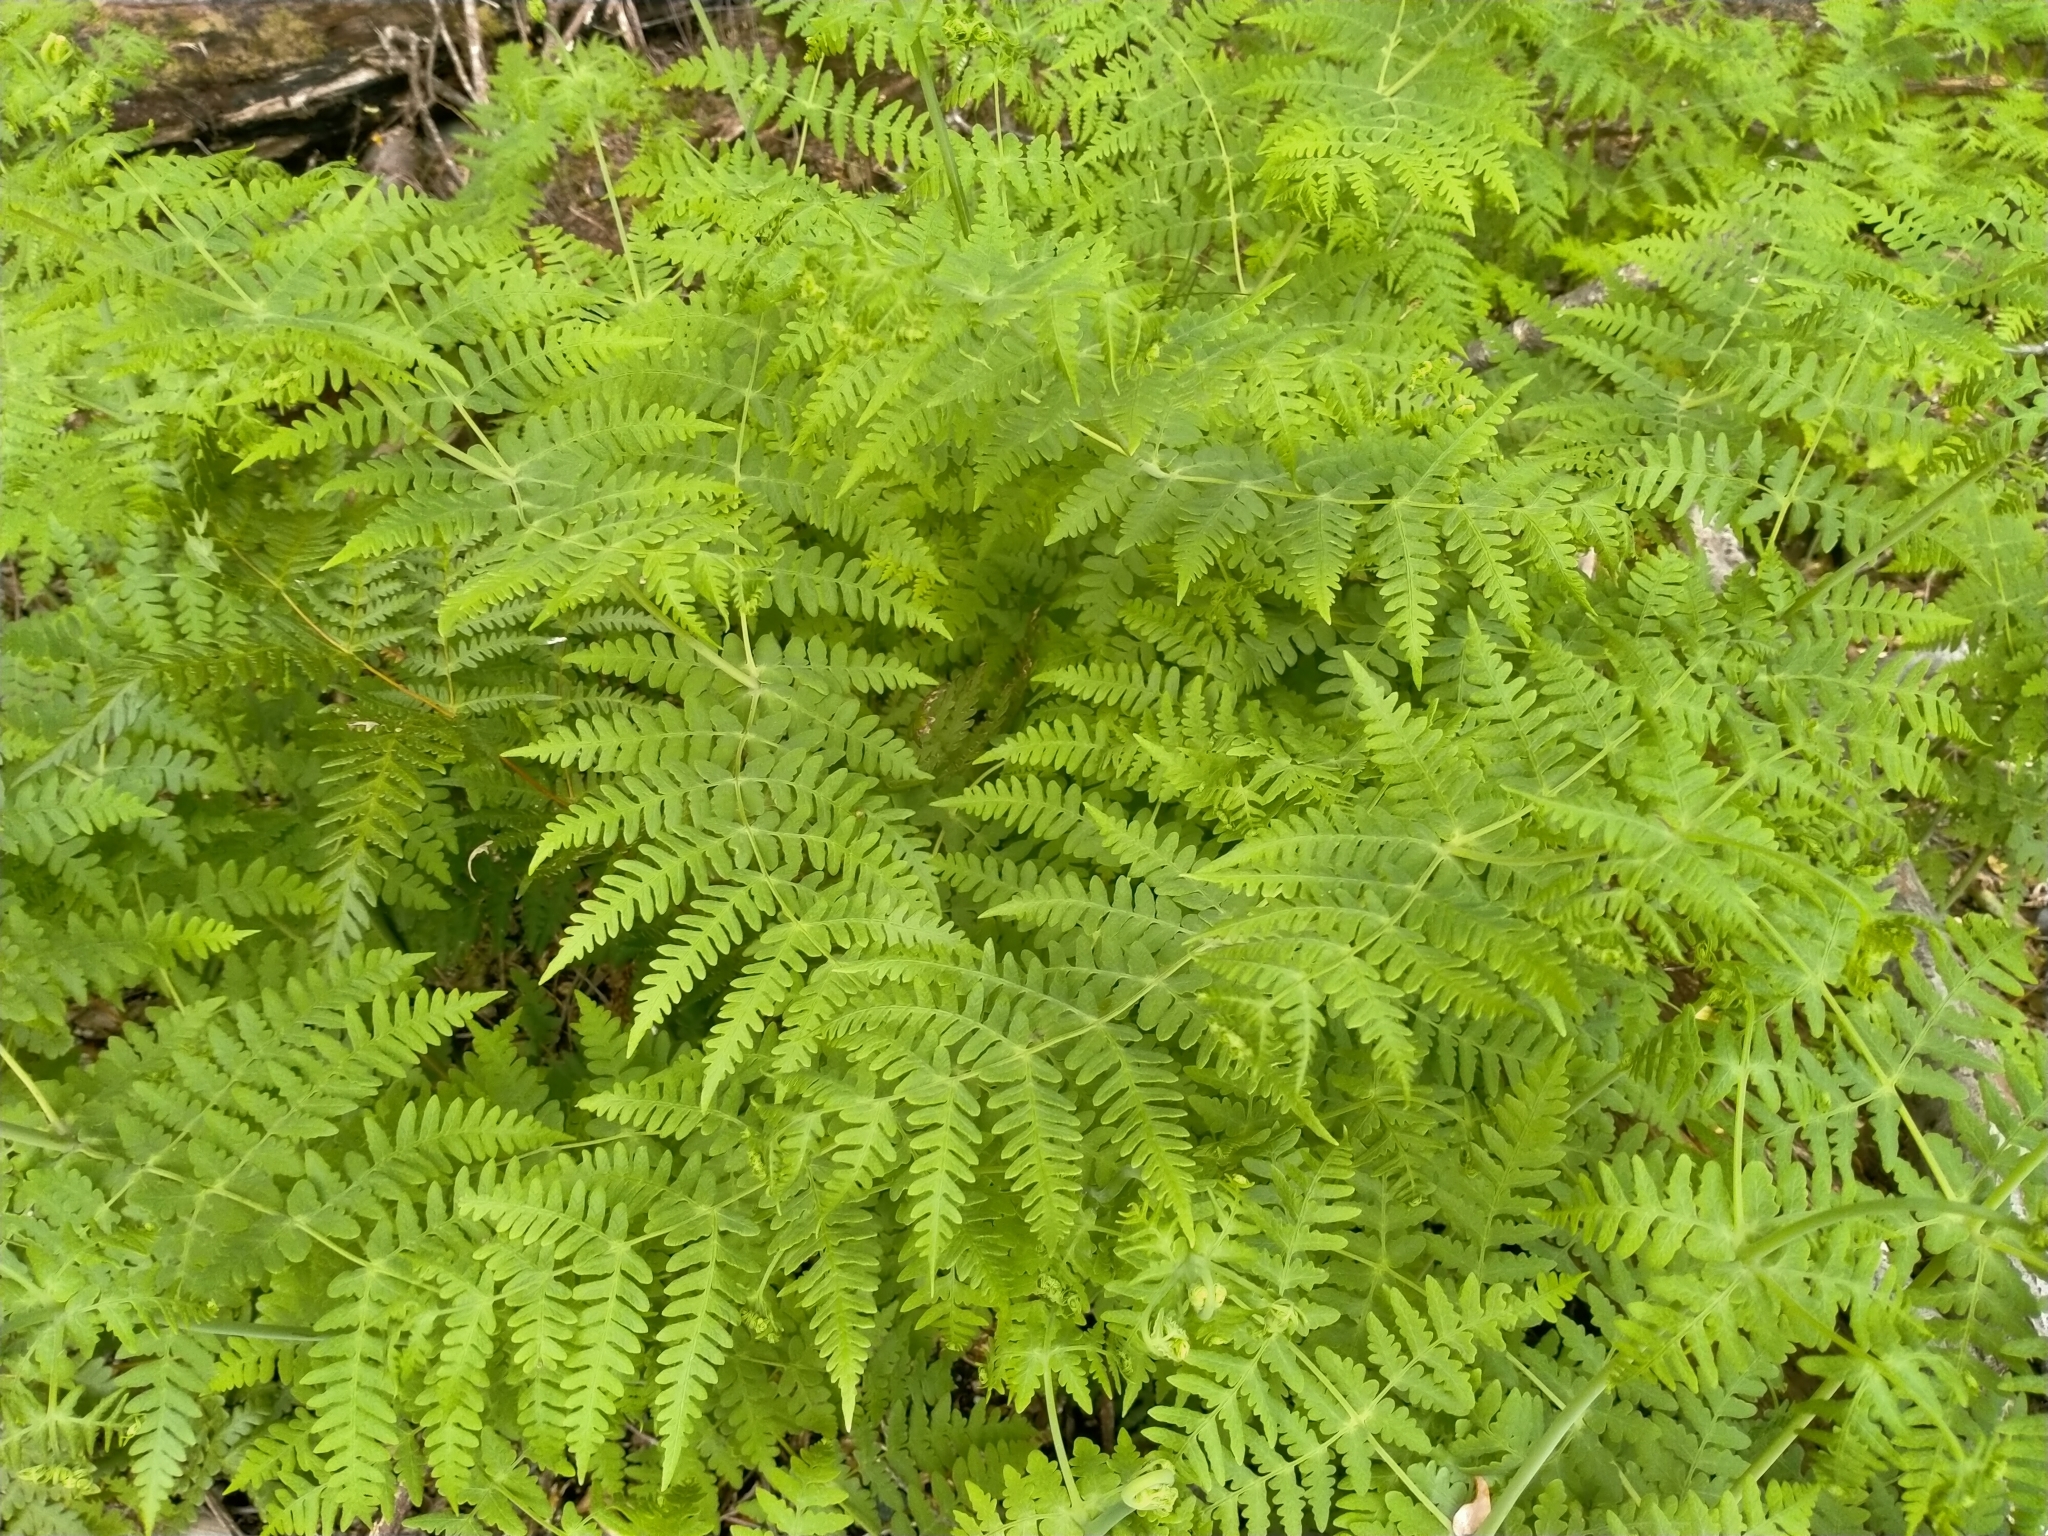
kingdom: Plantae
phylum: Tracheophyta
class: Polypodiopsida
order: Polypodiales
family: Dennstaedtiaceae
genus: Histiopteris
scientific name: Histiopteris incisa
